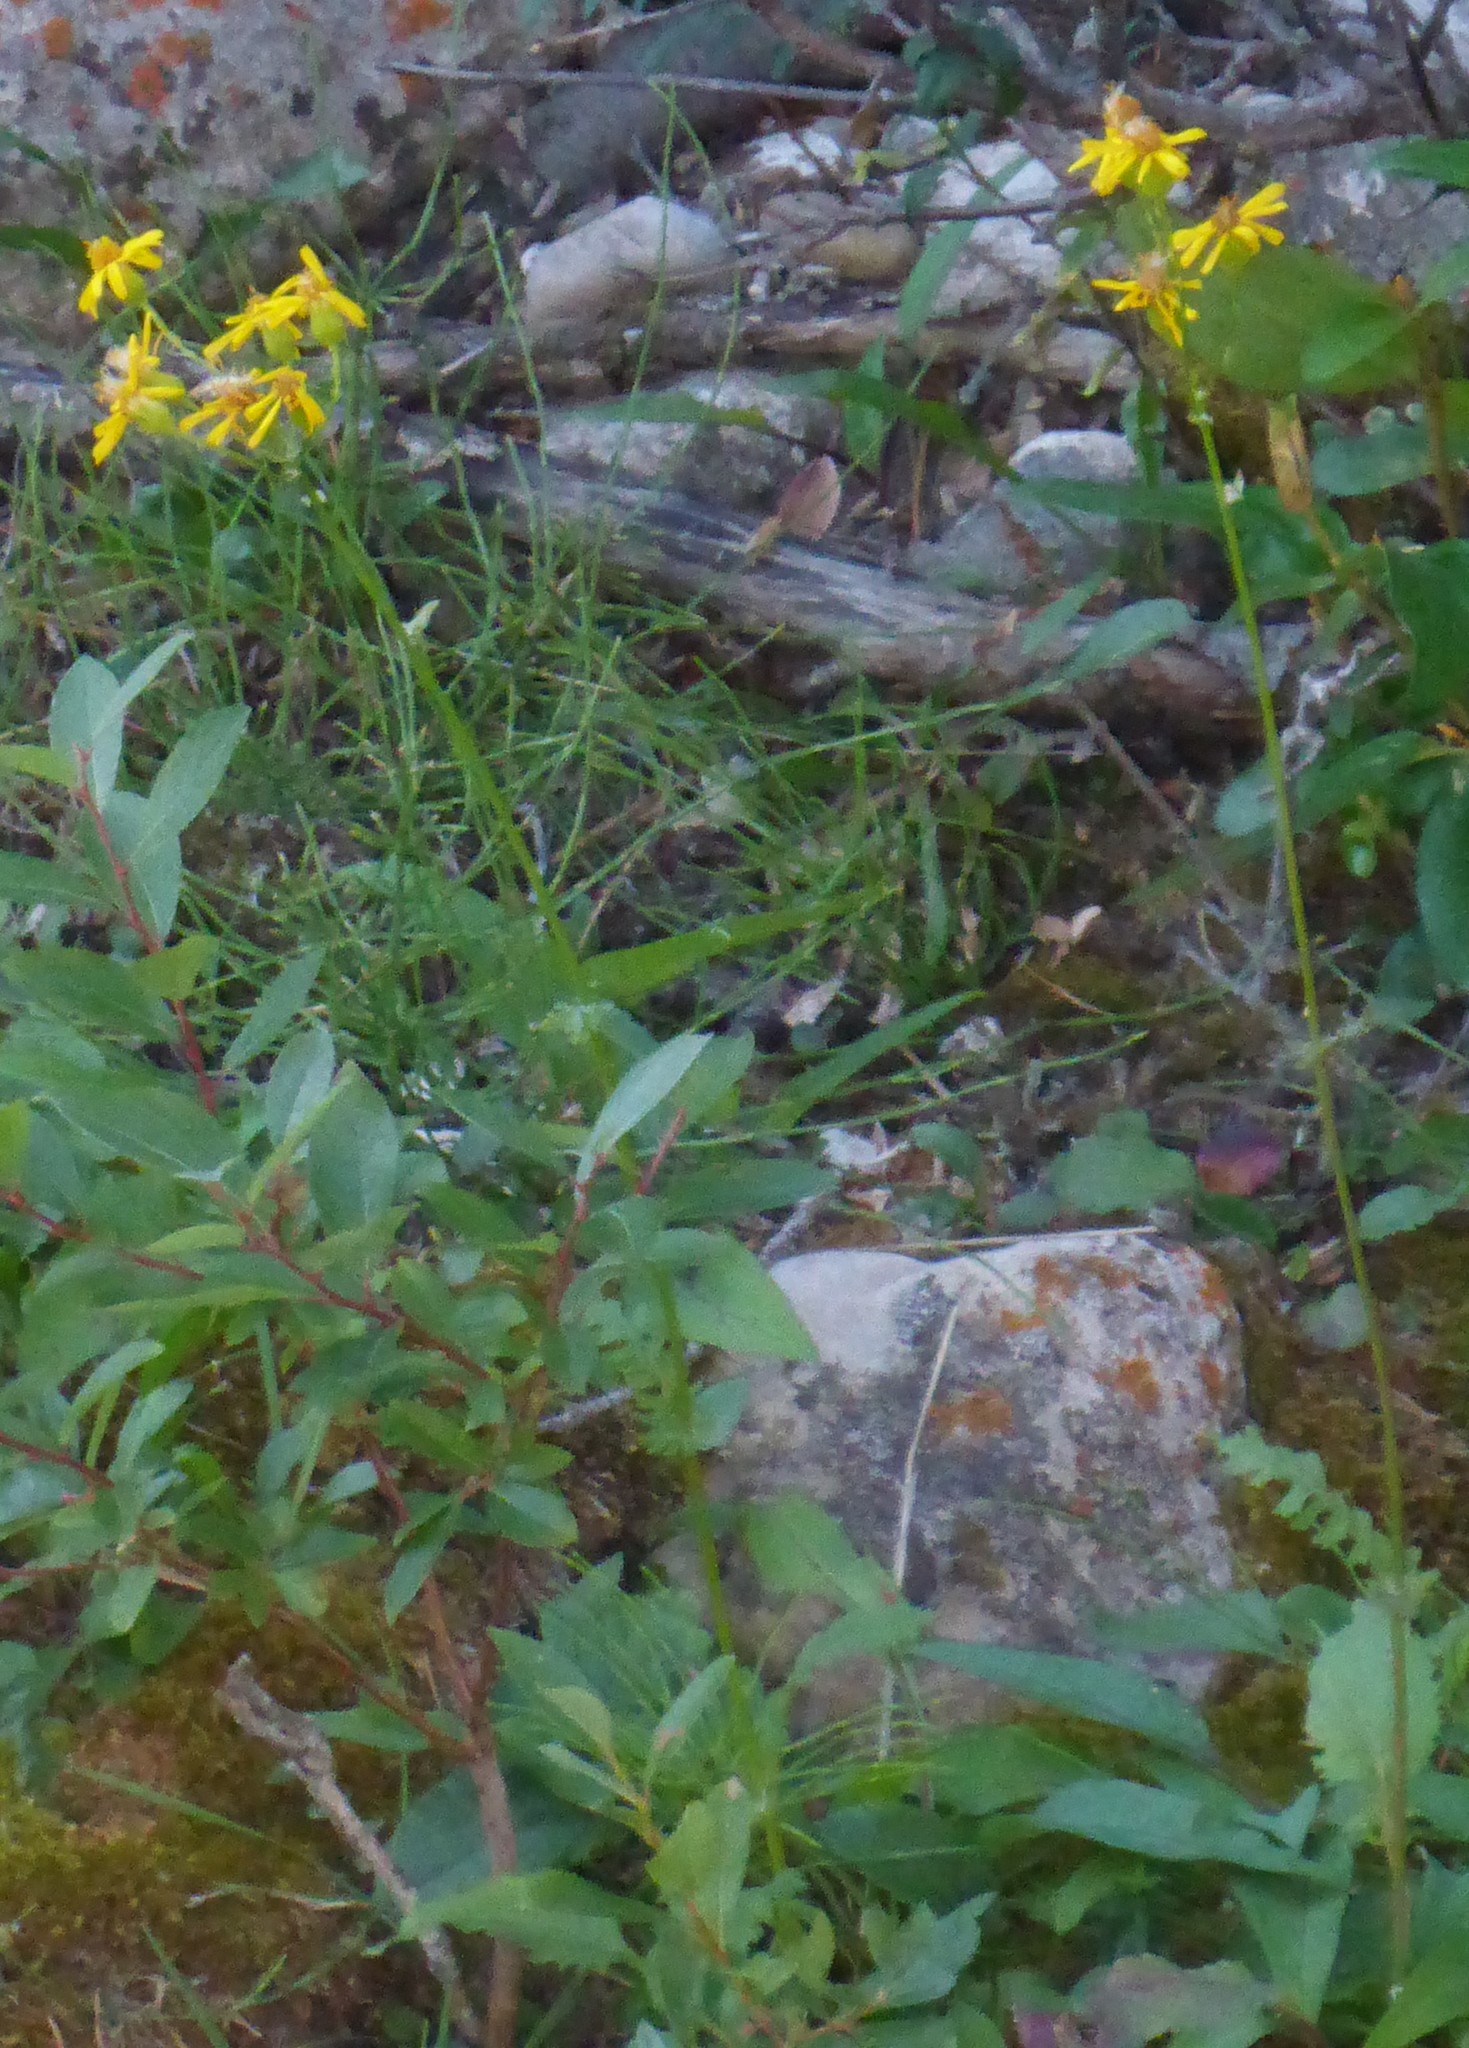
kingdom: Plantae
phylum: Tracheophyta
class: Magnoliopsida
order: Asterales
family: Asteraceae
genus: Packera
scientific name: Packera paupercula
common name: Balsam groundsel
